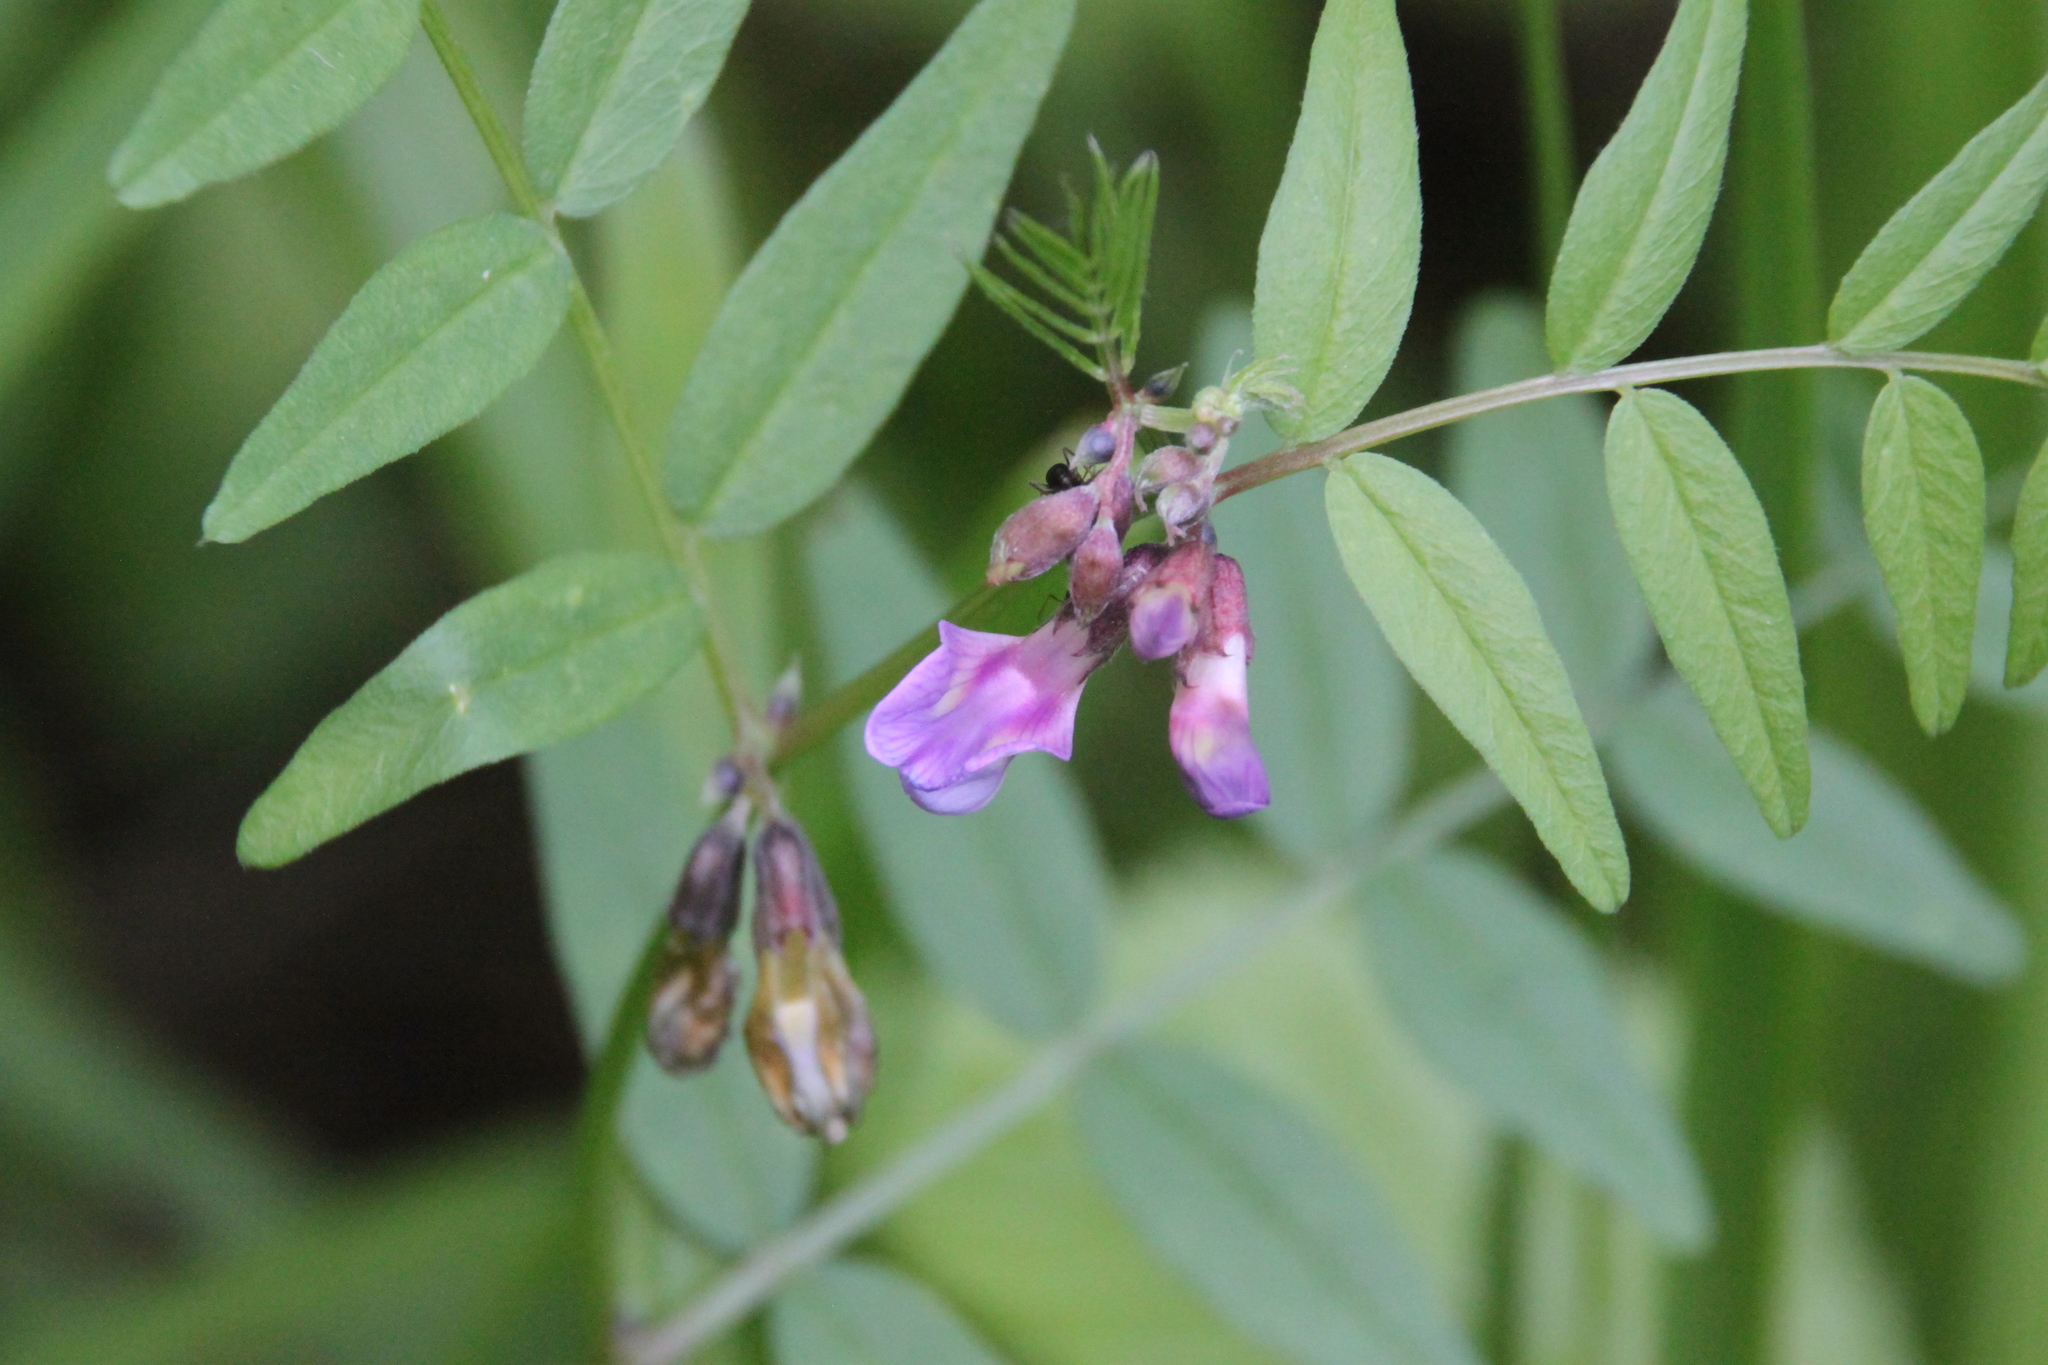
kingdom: Plantae
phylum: Tracheophyta
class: Magnoliopsida
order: Fabales
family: Fabaceae
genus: Vicia
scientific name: Vicia sepium
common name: Bush vetch
